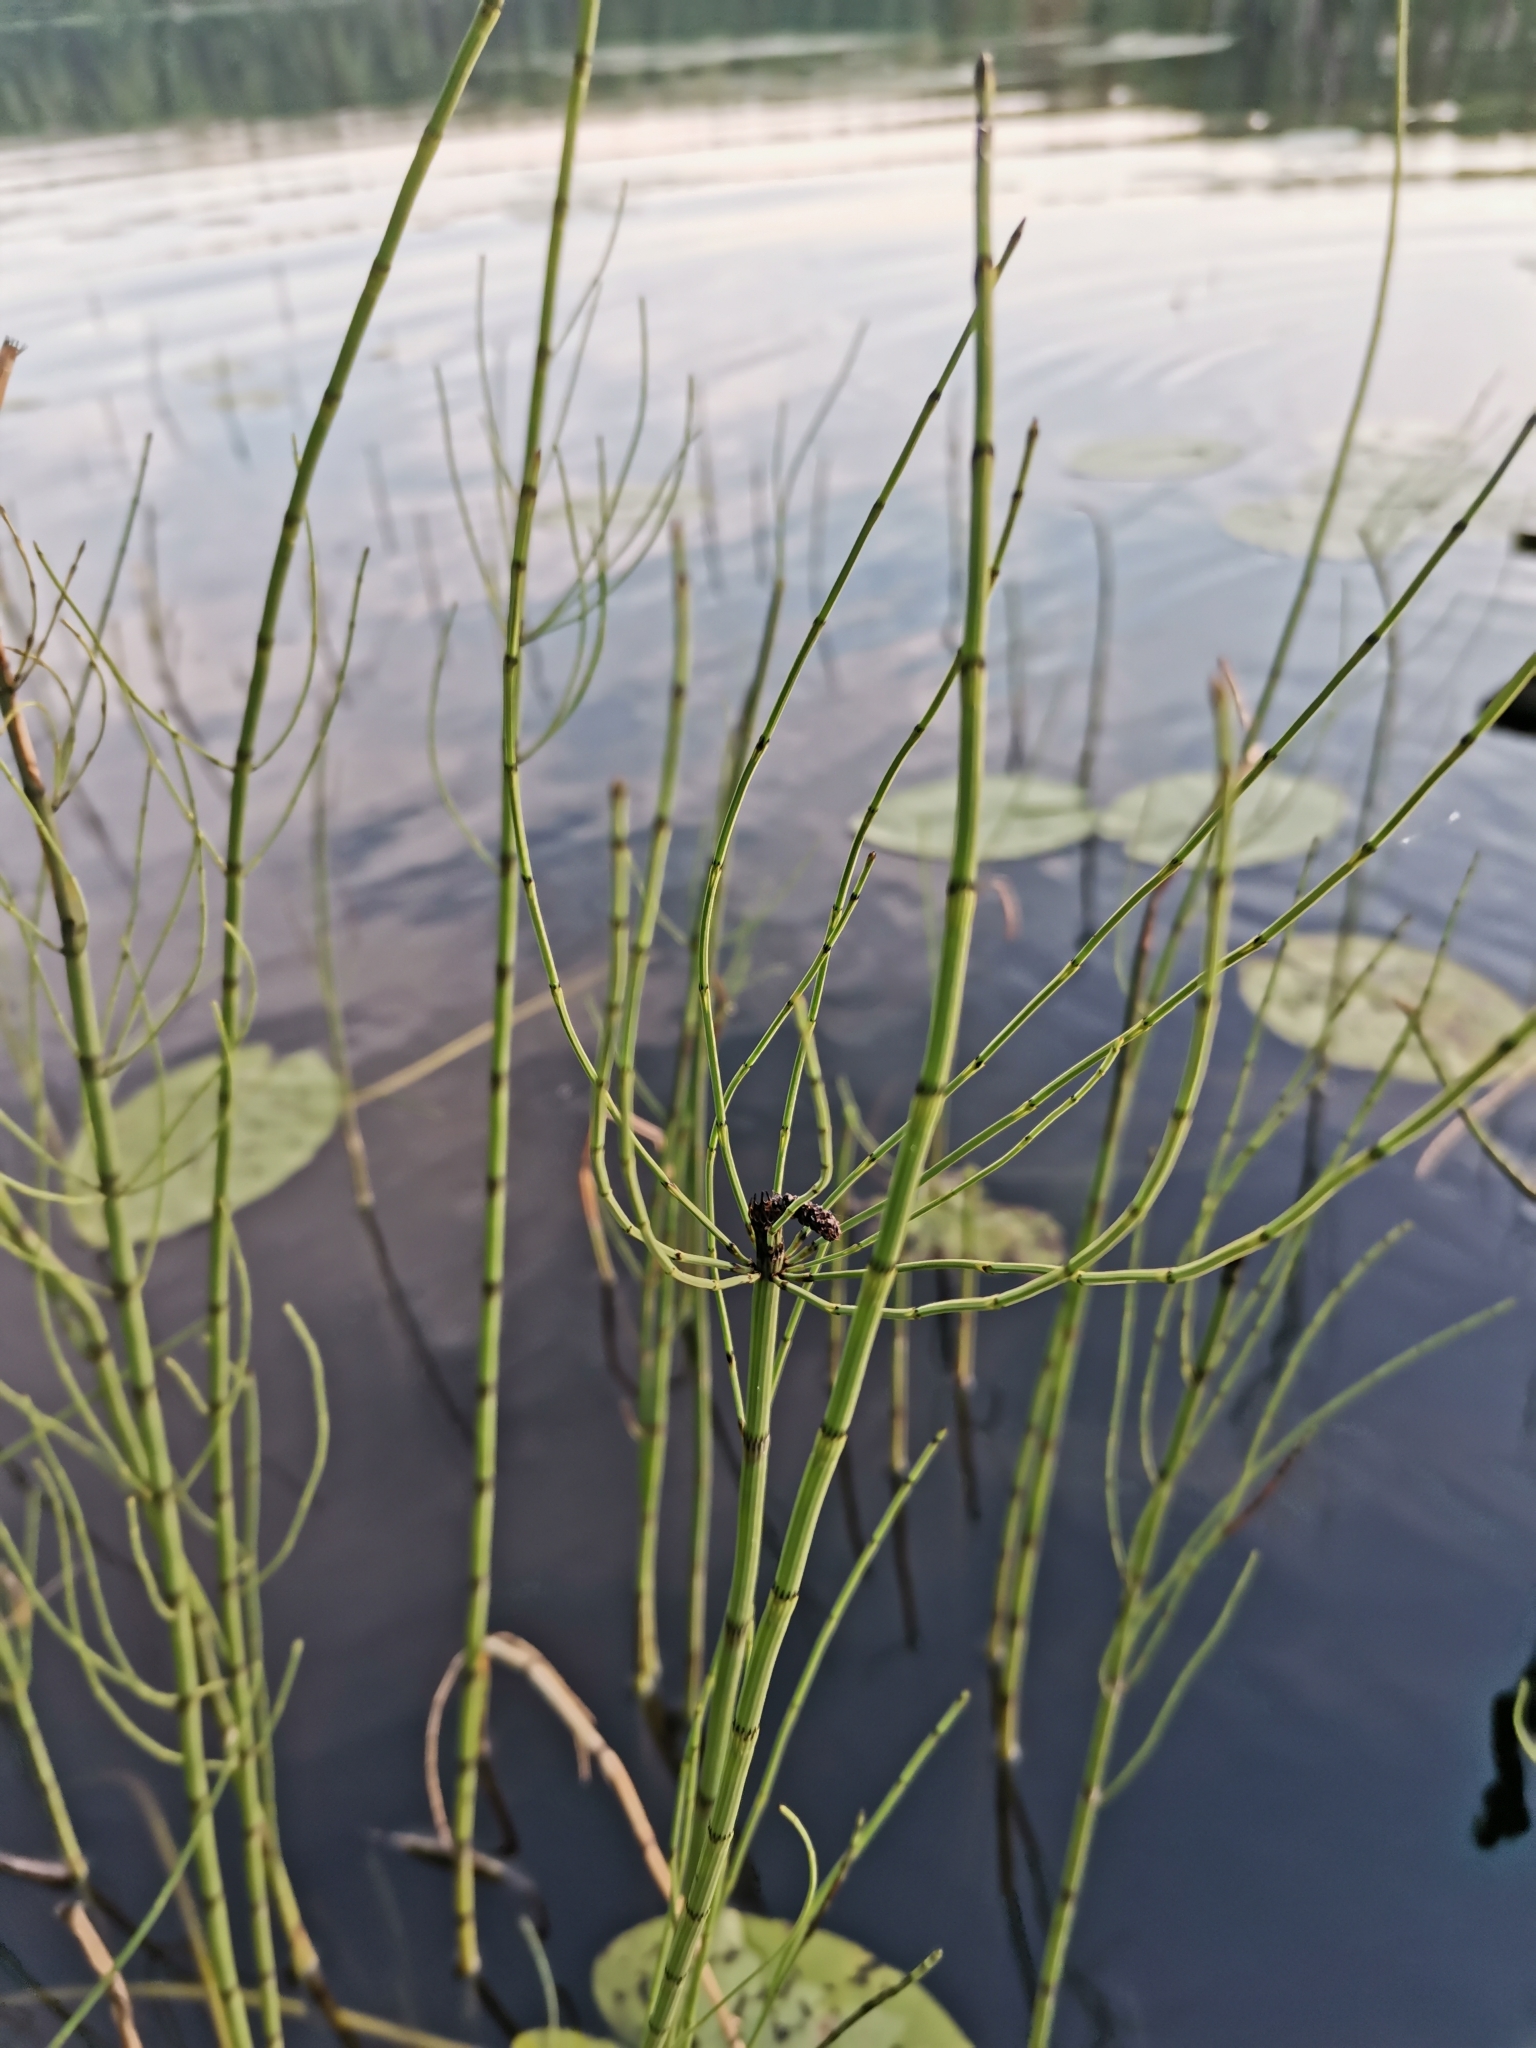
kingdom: Plantae
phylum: Tracheophyta
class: Polypodiopsida
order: Equisetales
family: Equisetaceae
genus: Equisetum
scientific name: Equisetum fluviatile
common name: Water horsetail
